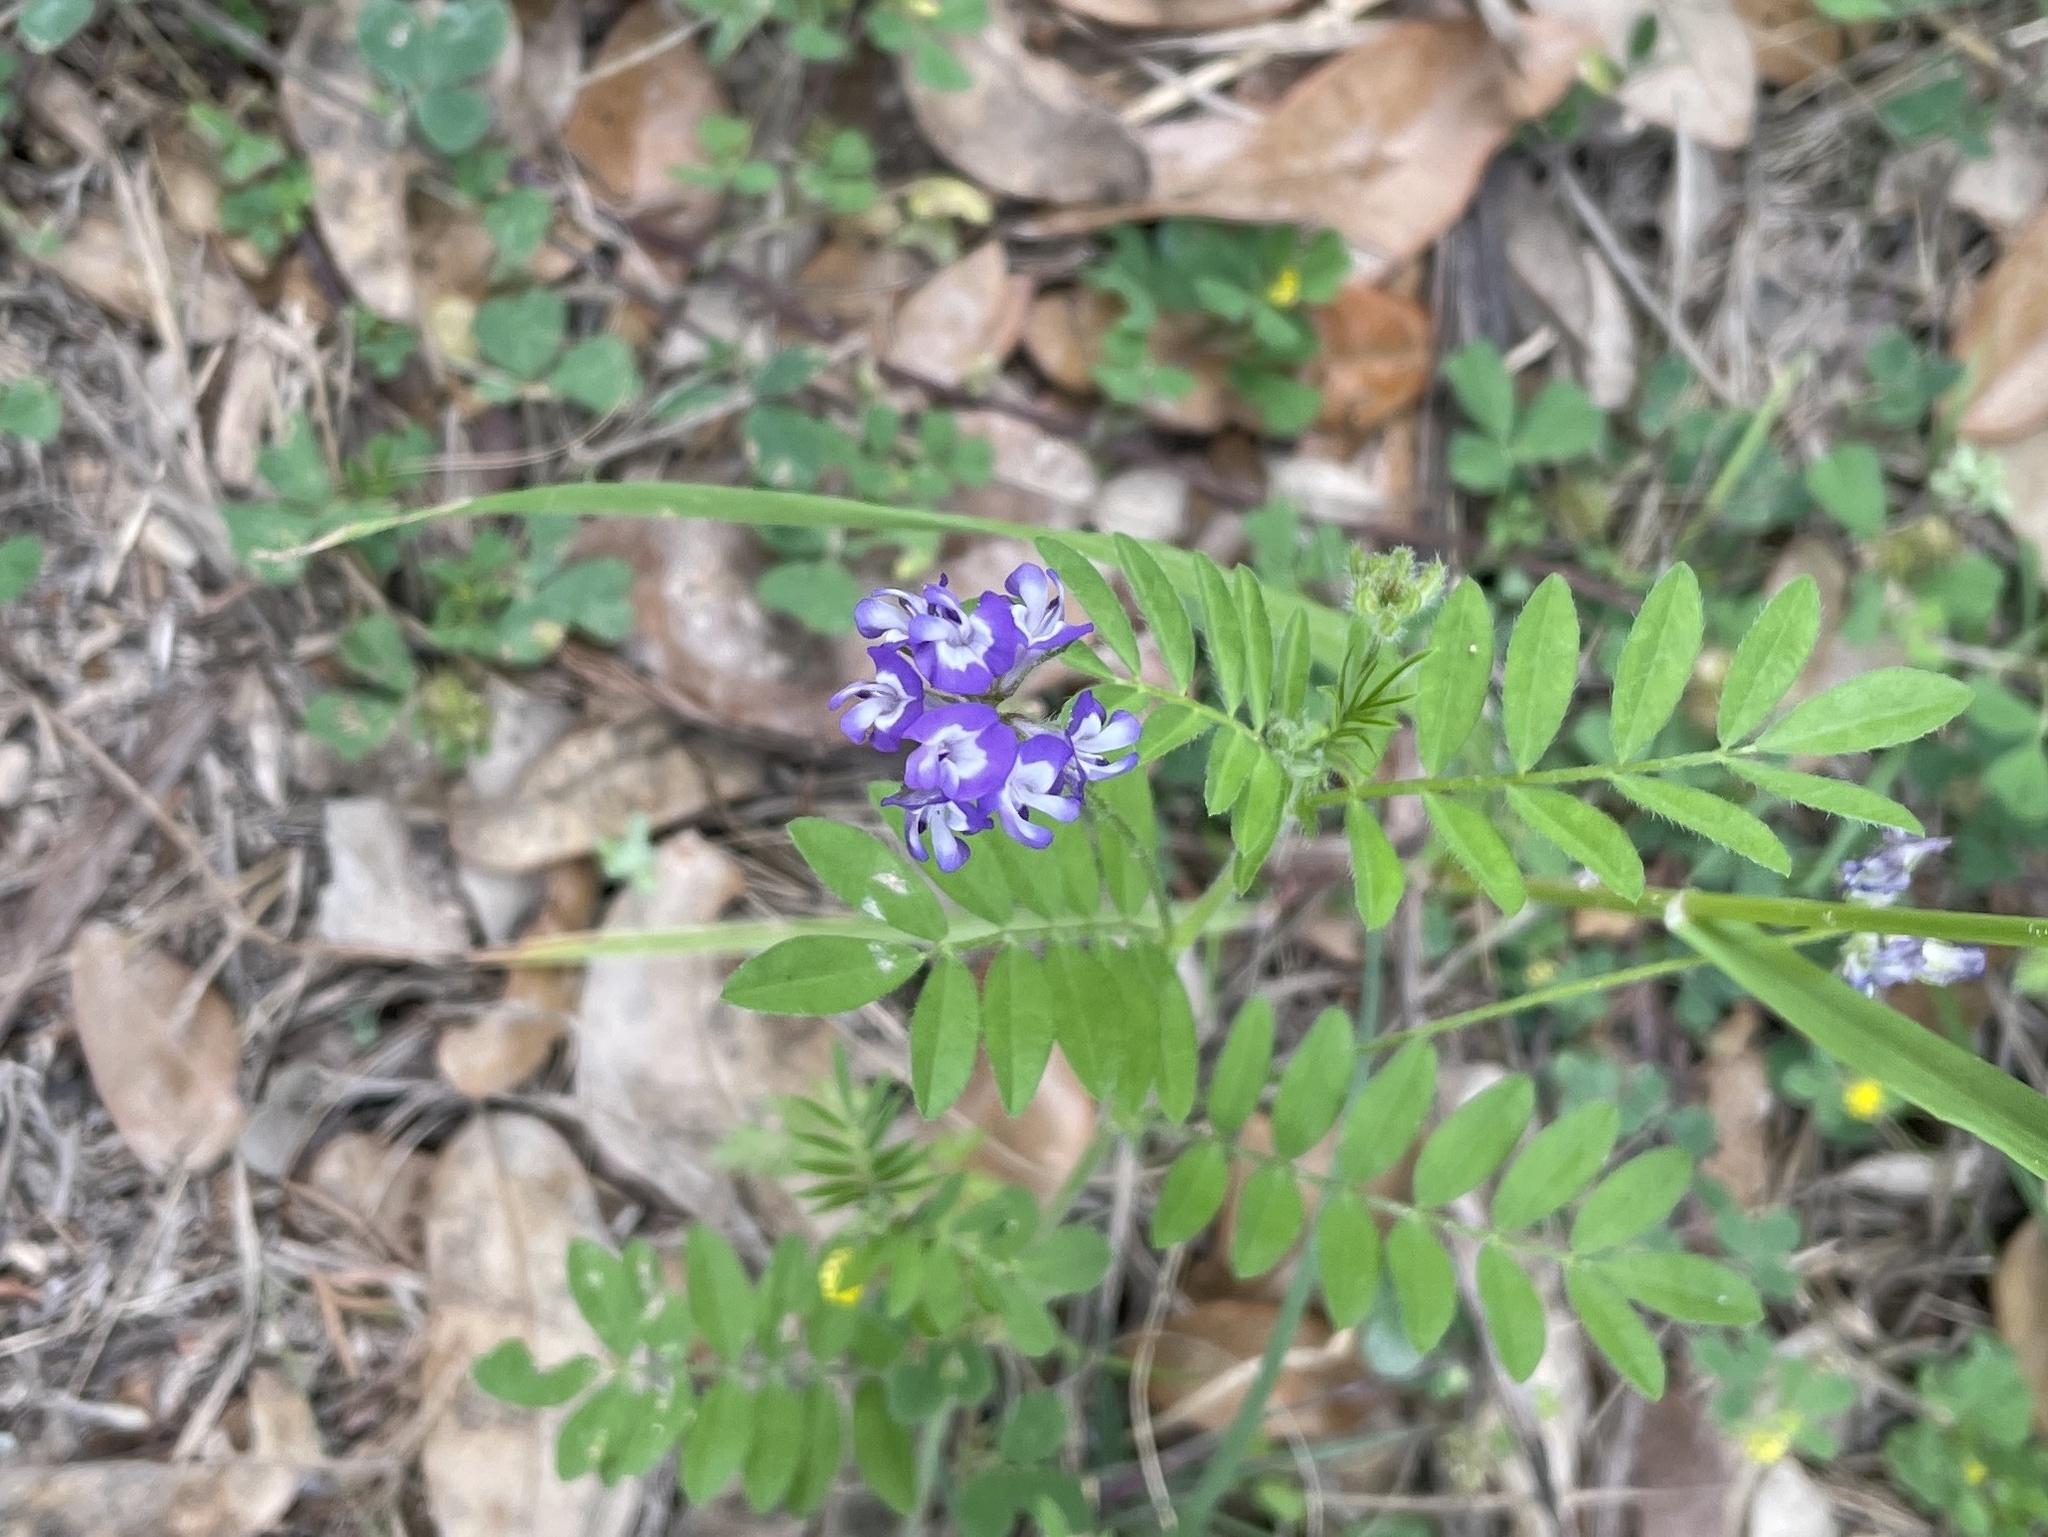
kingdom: Plantae
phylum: Tracheophyta
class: Magnoliopsida
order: Fabales
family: Fabaceae
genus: Astragalus
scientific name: Astragalus nuttallianus
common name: Smallflowered milkvetch
